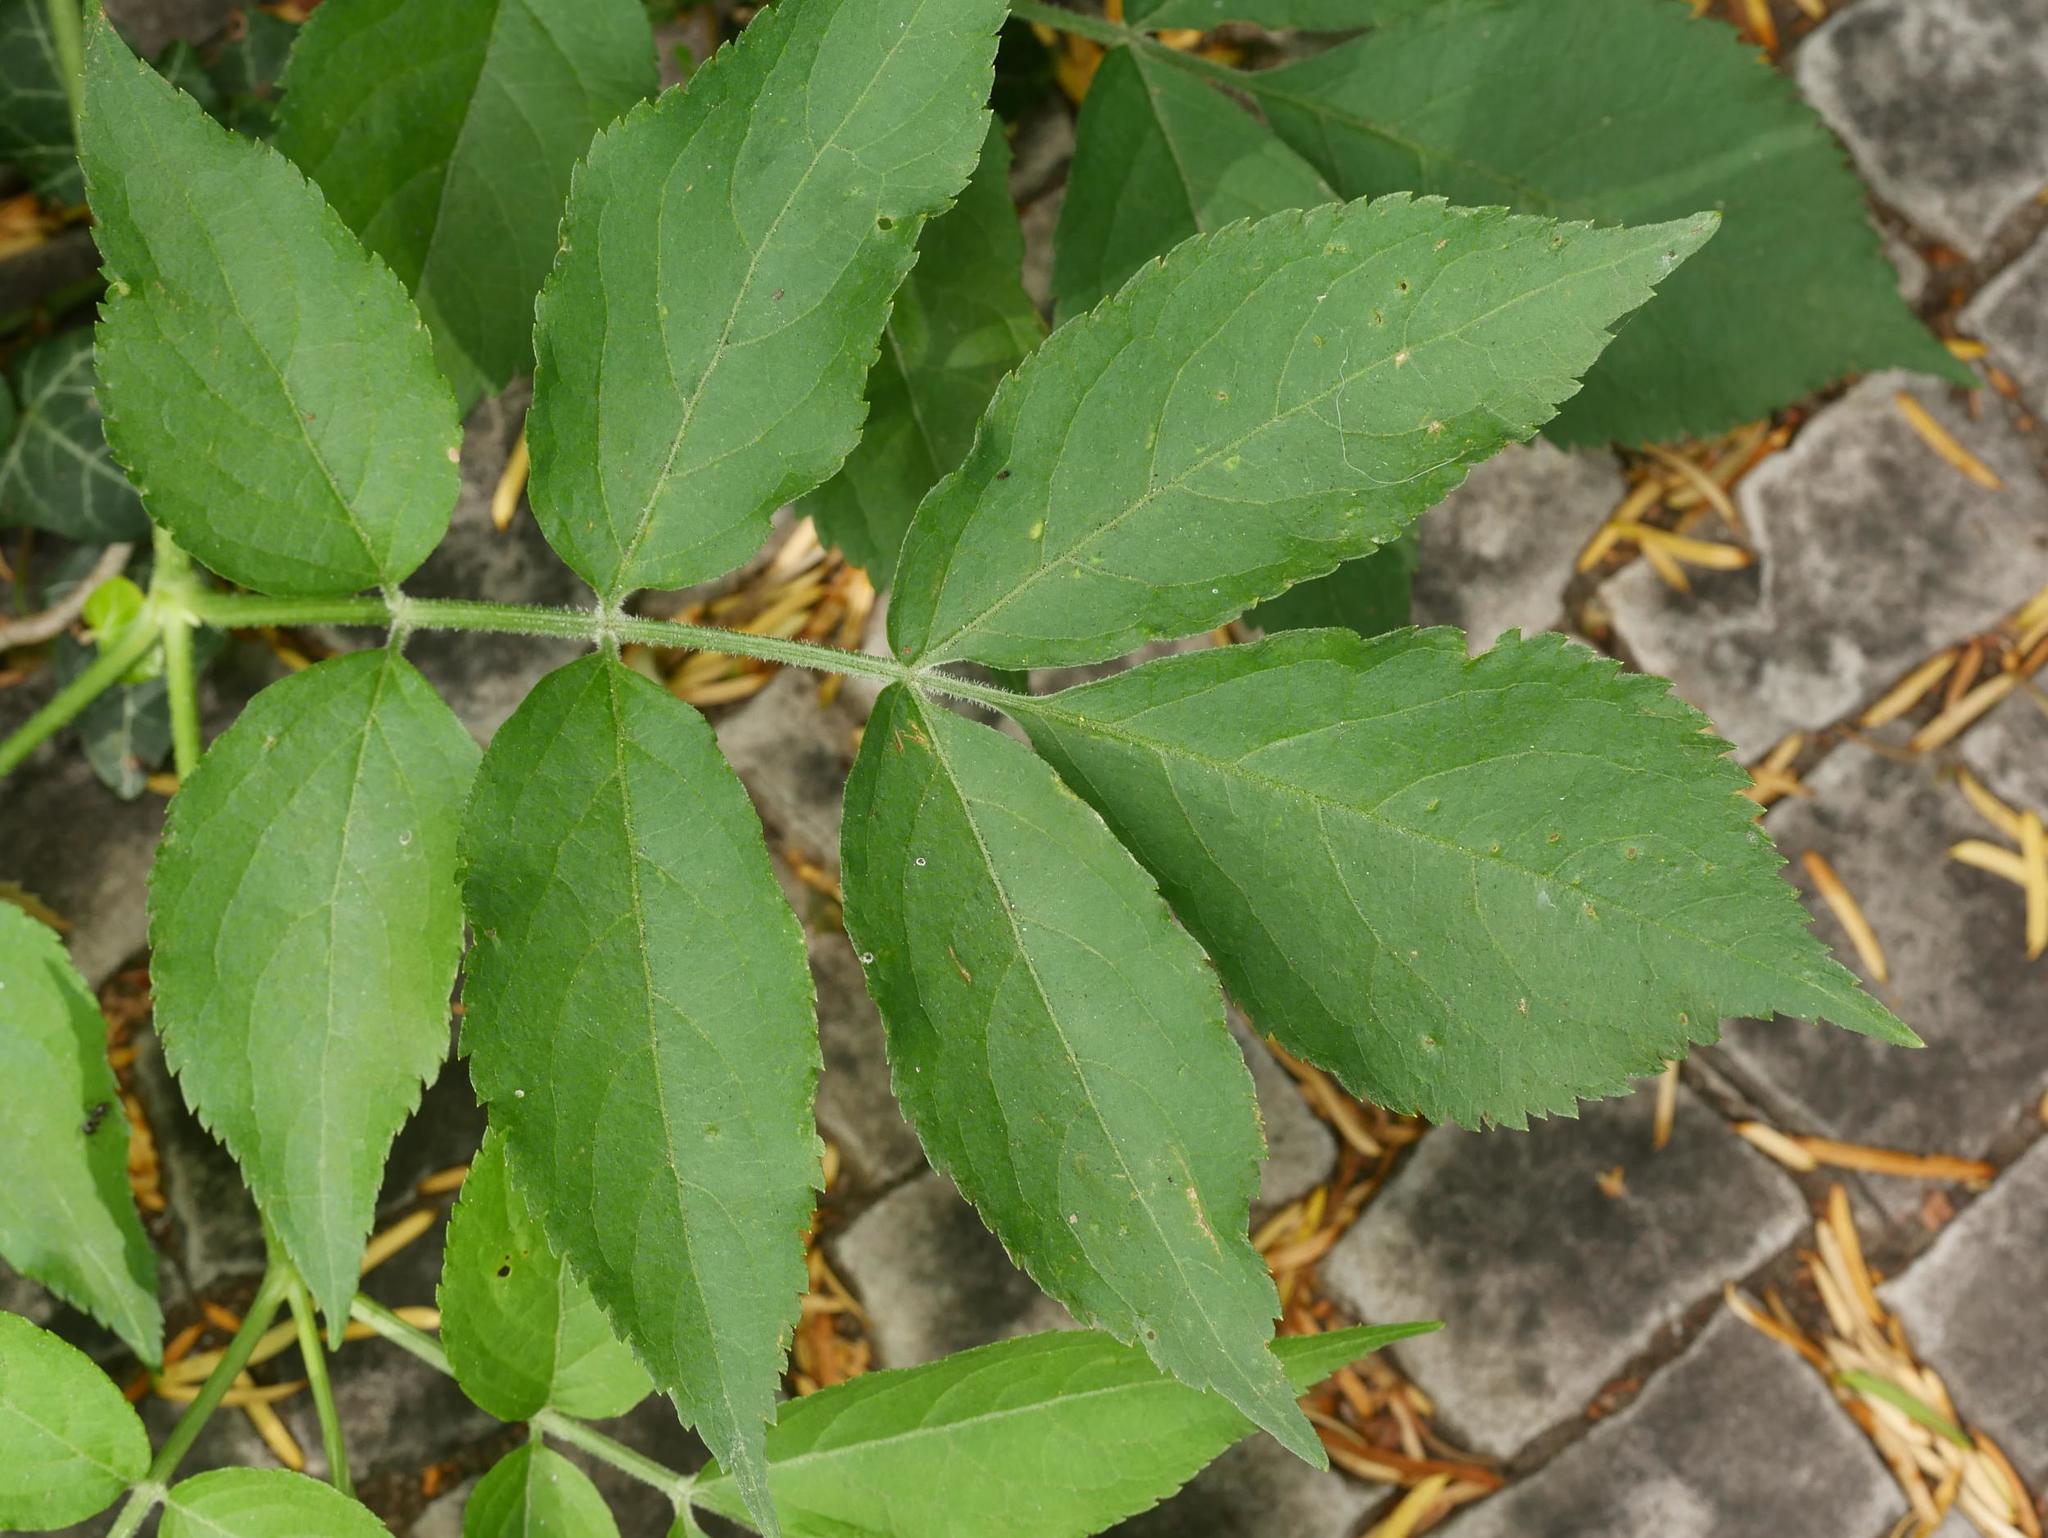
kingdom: Plantae
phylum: Tracheophyta
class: Magnoliopsida
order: Dipsacales
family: Viburnaceae
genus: Sambucus
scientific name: Sambucus nigra
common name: Elder
